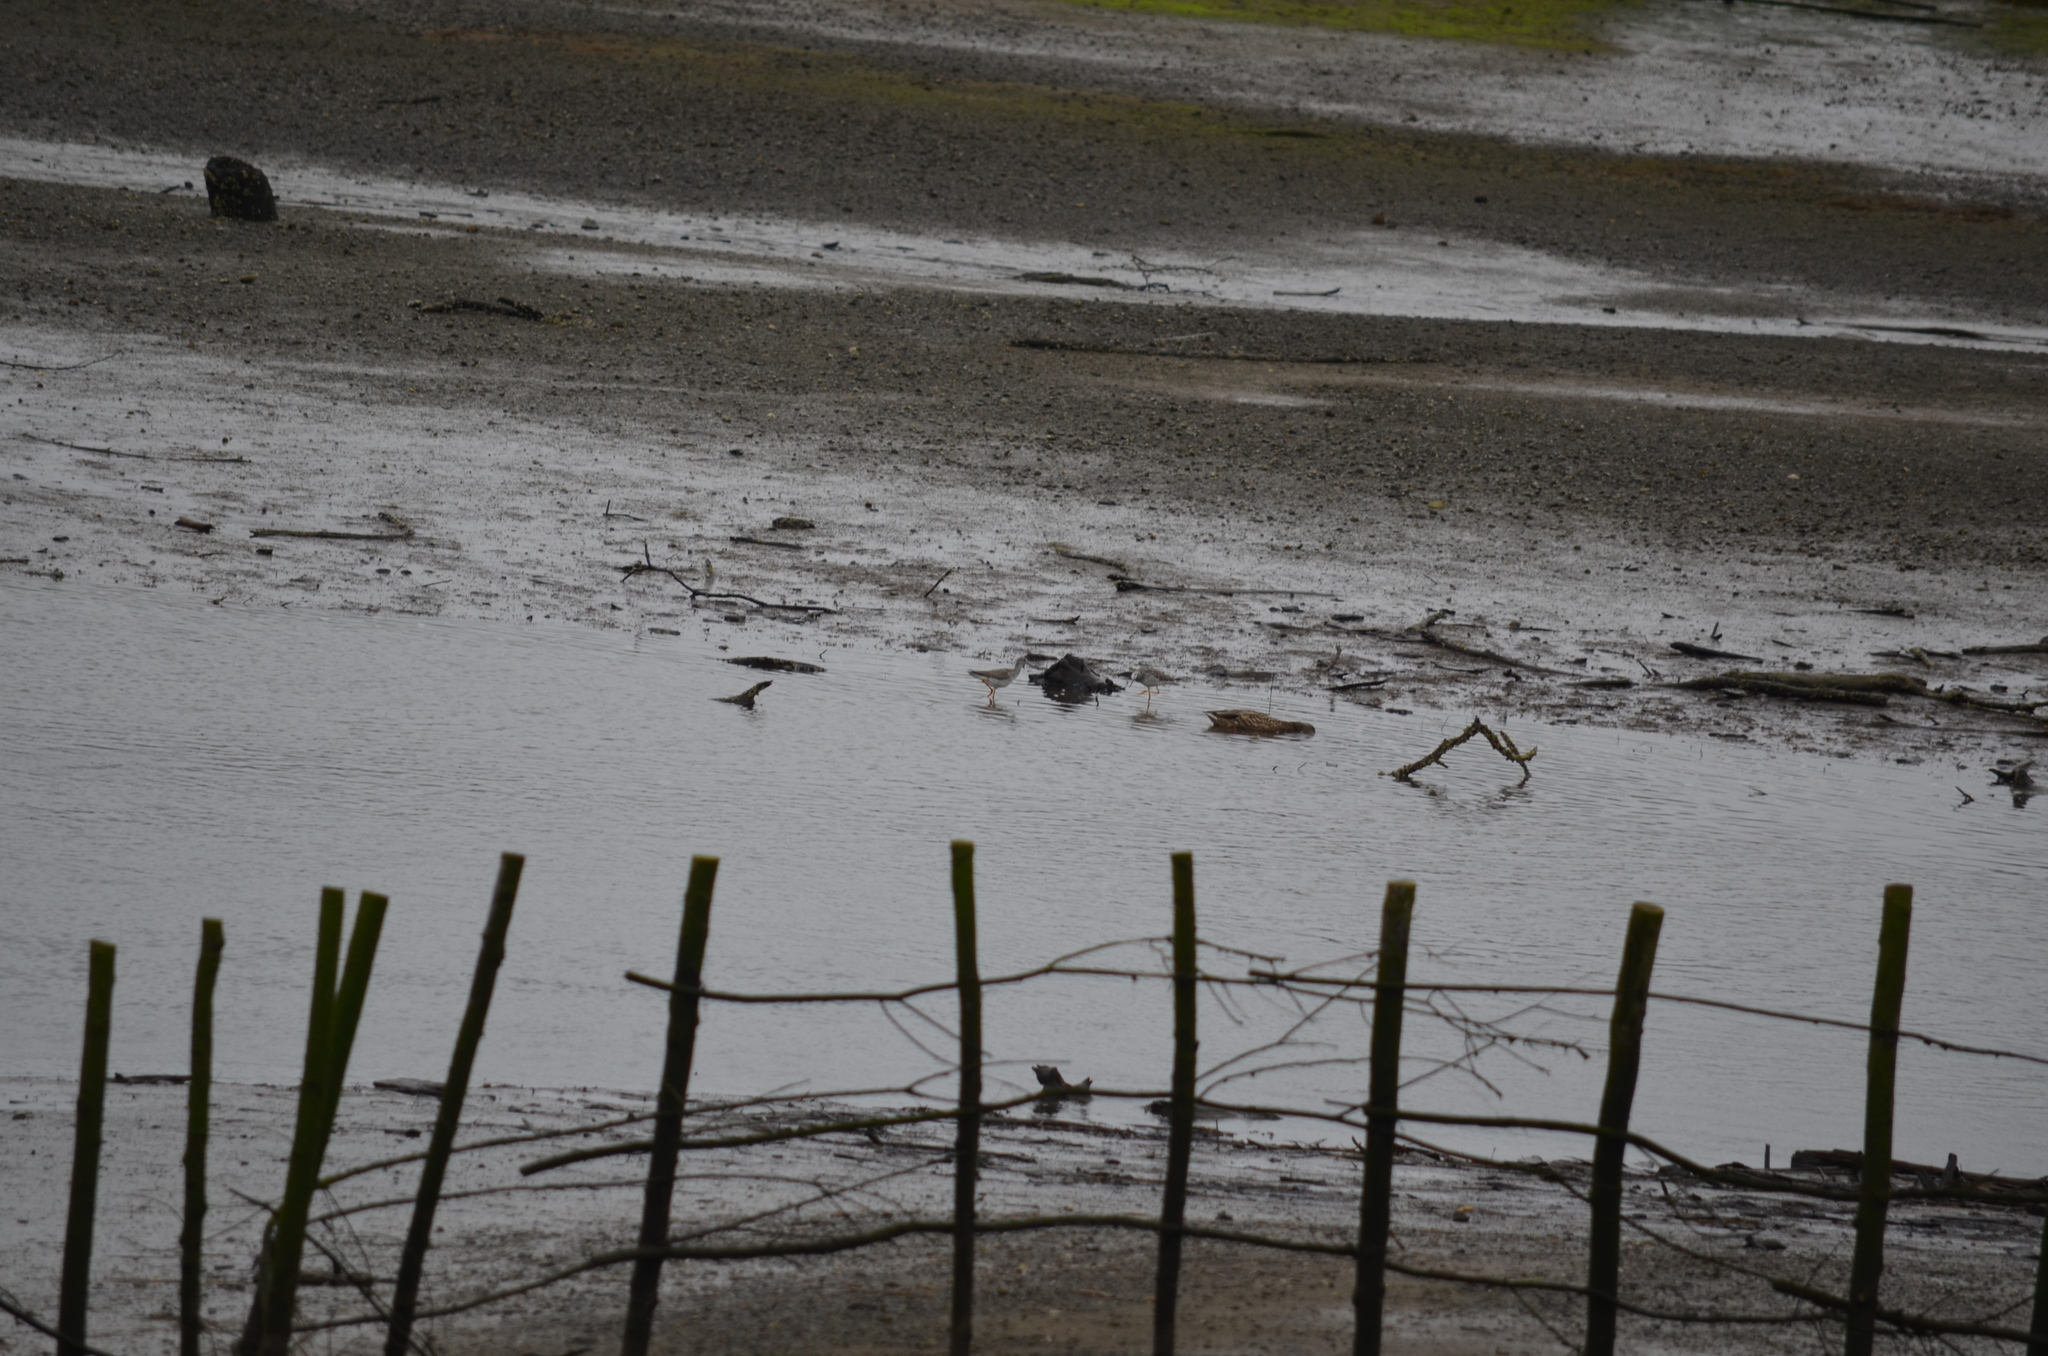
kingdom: Animalia
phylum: Chordata
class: Aves
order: Charadriiformes
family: Scolopacidae
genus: Tringa
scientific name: Tringa melanoleuca
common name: Greater yellowlegs
